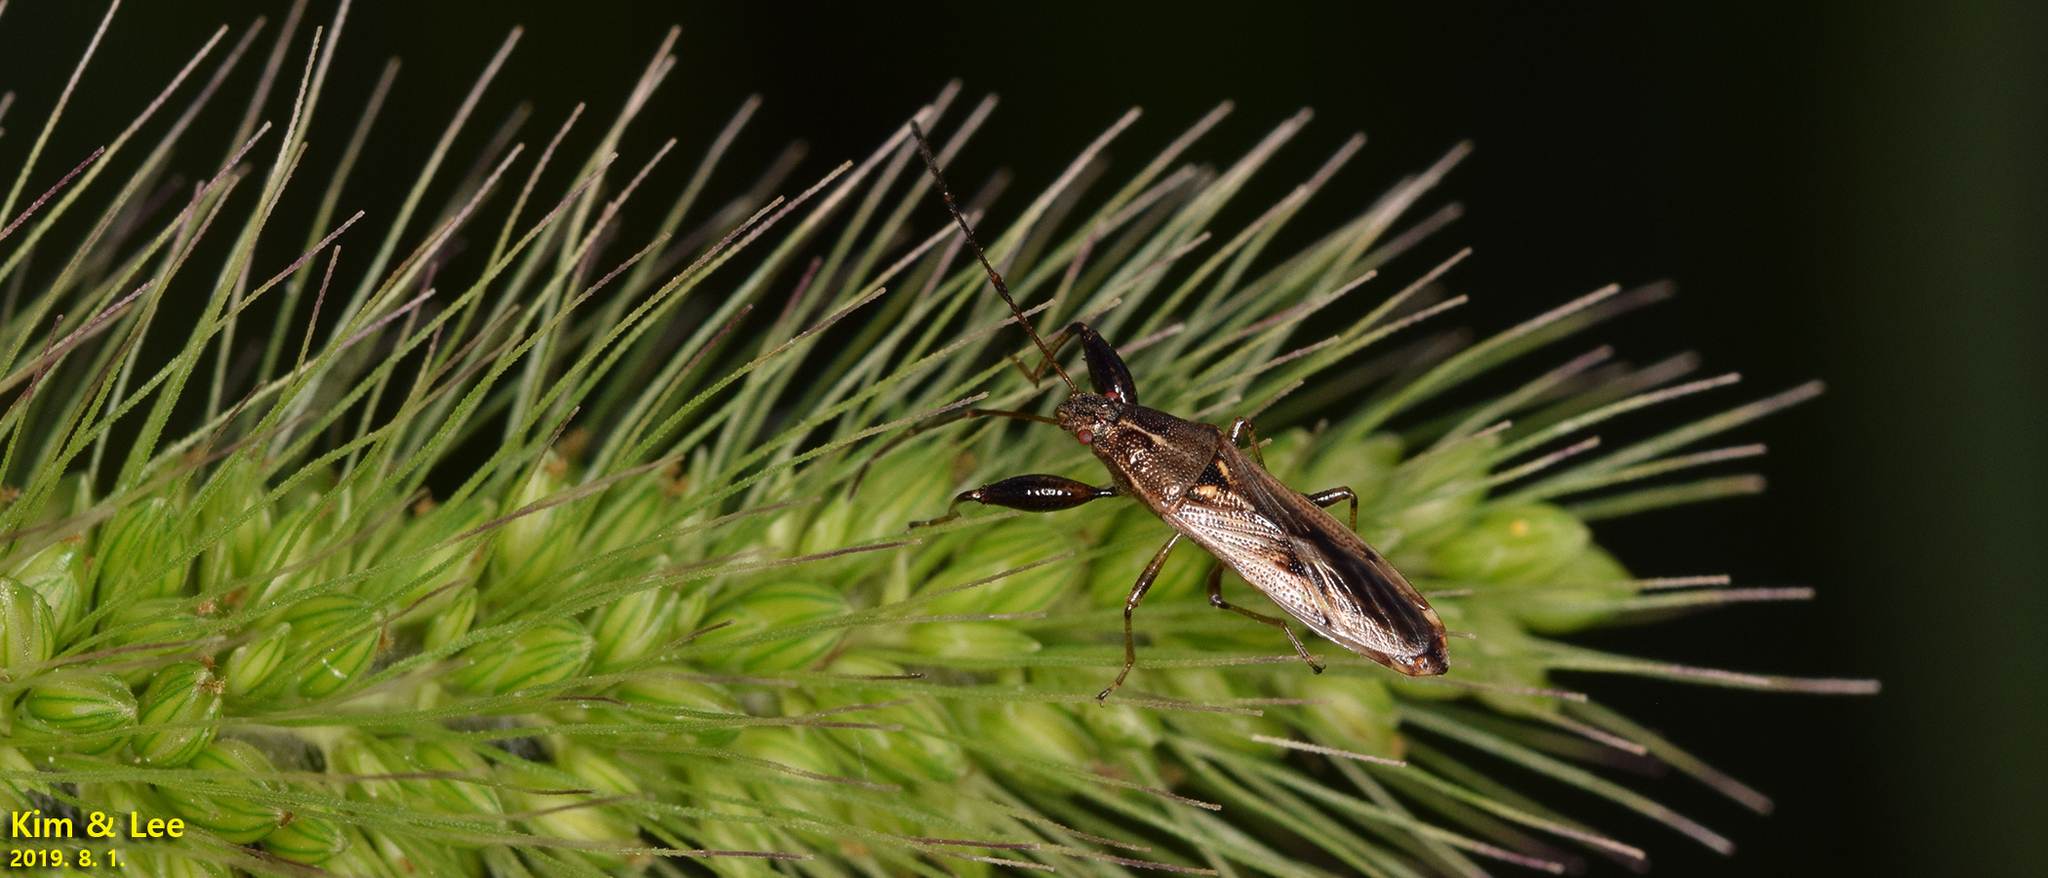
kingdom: Animalia
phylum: Arthropoda
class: Insecta
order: Hemiptera
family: Pachygronthidae
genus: Pachygrontha
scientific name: Pachygrontha antennata
